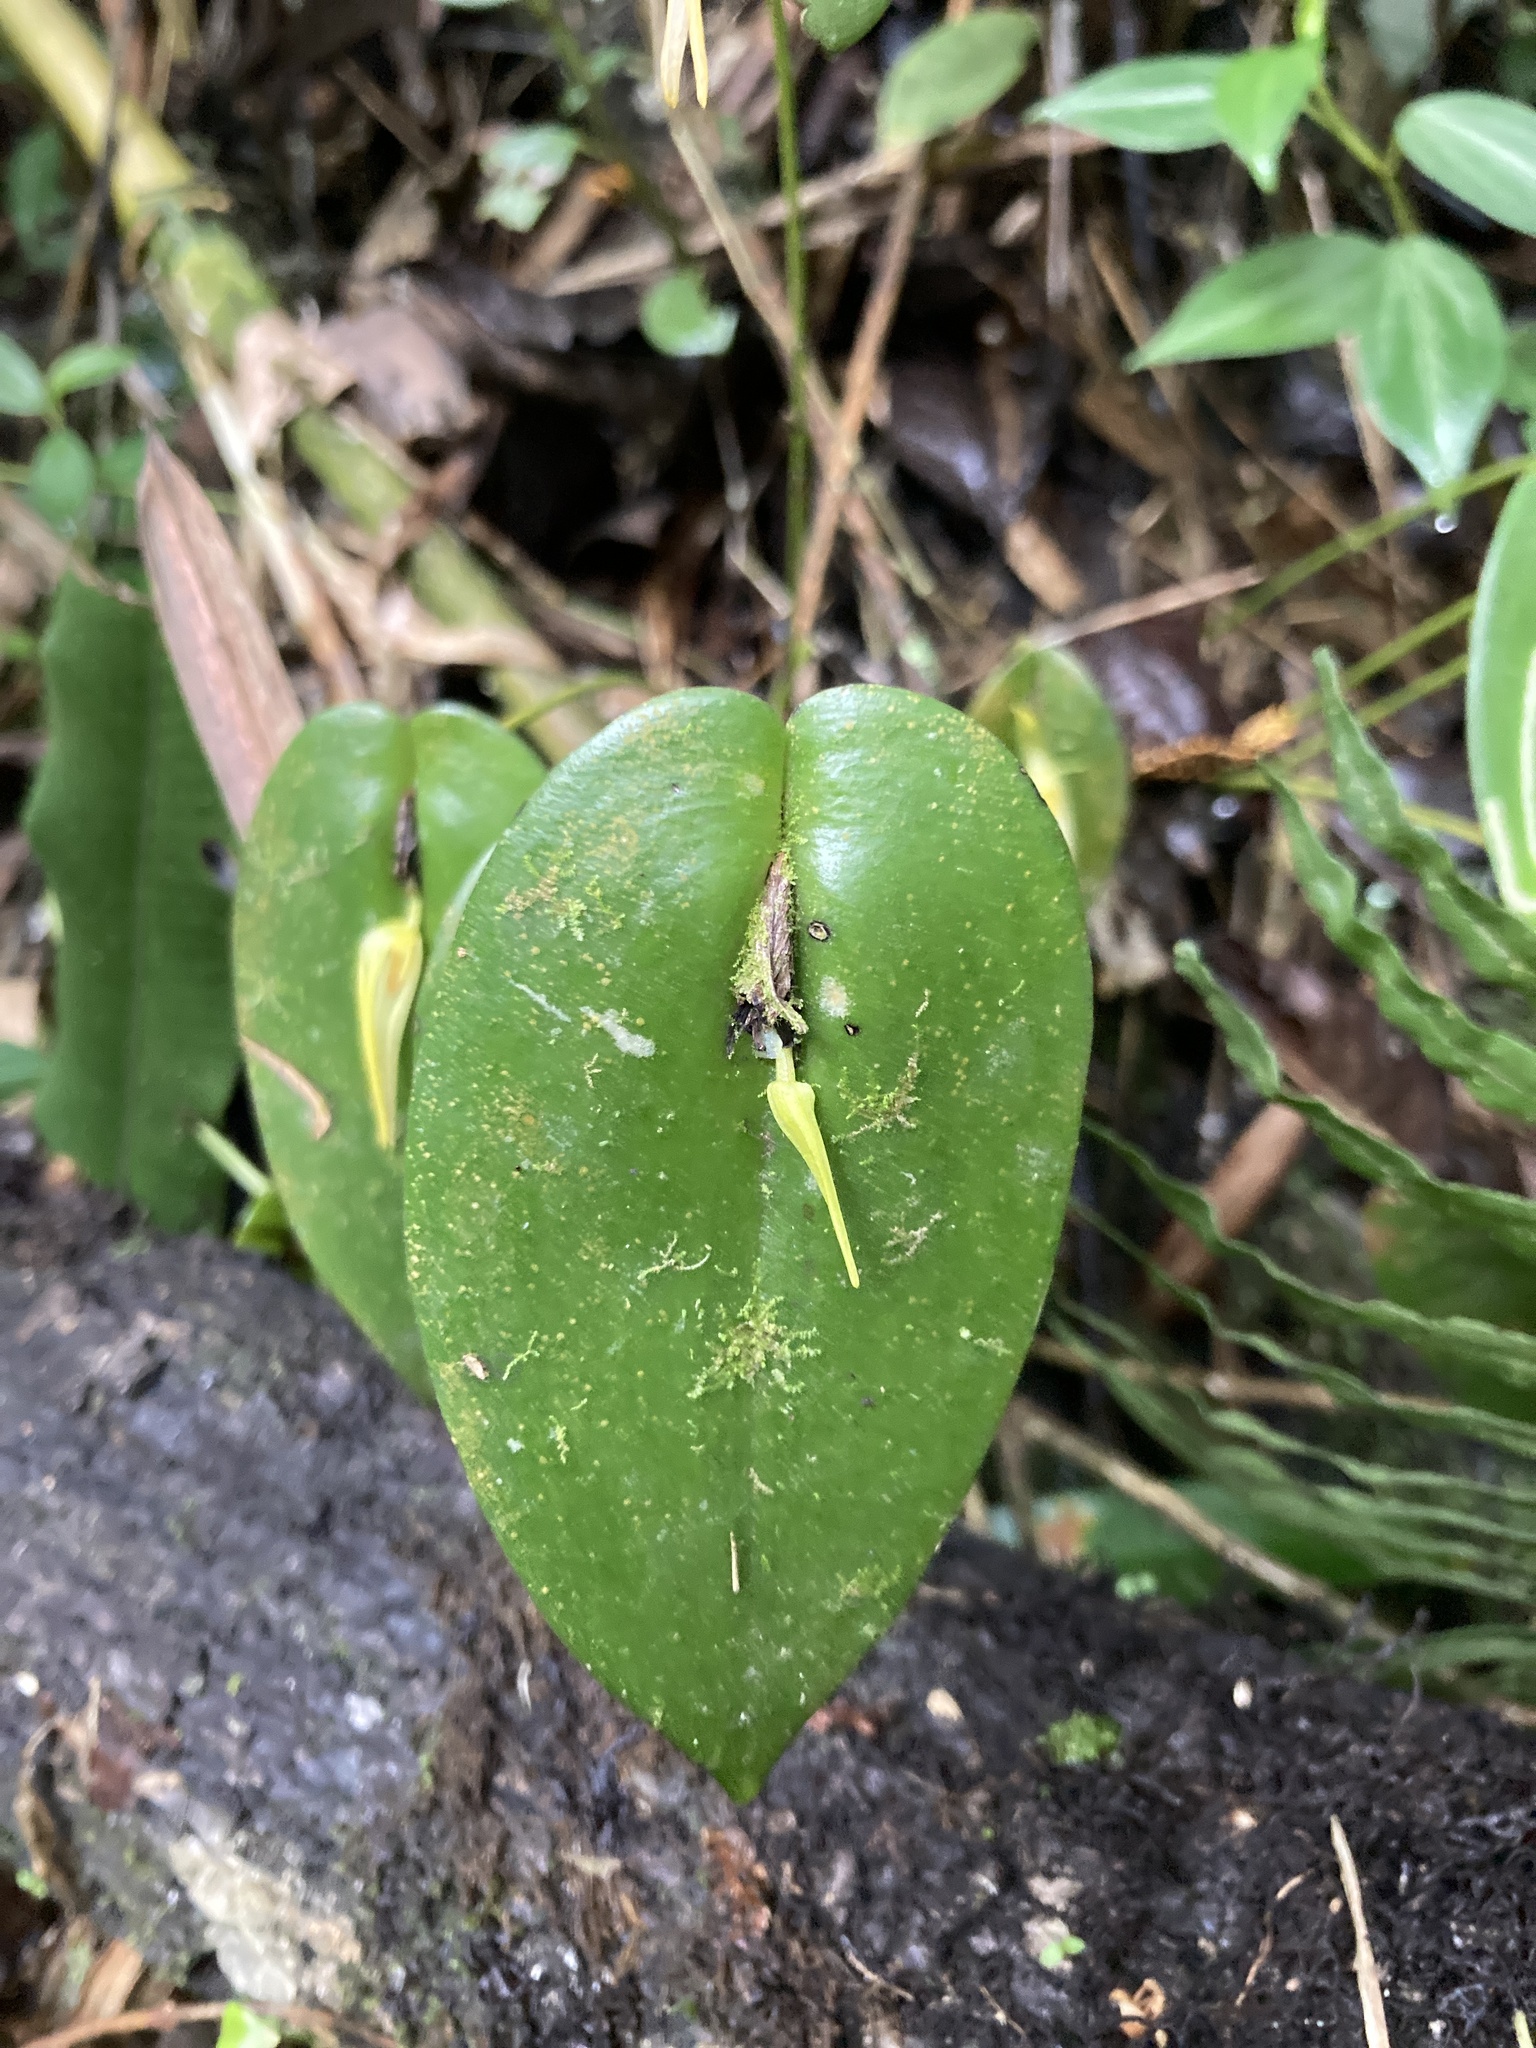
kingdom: Plantae
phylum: Tracheophyta
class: Liliopsida
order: Asparagales
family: Orchidaceae
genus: Pleurothallis
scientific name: Pleurothallis microcardia
